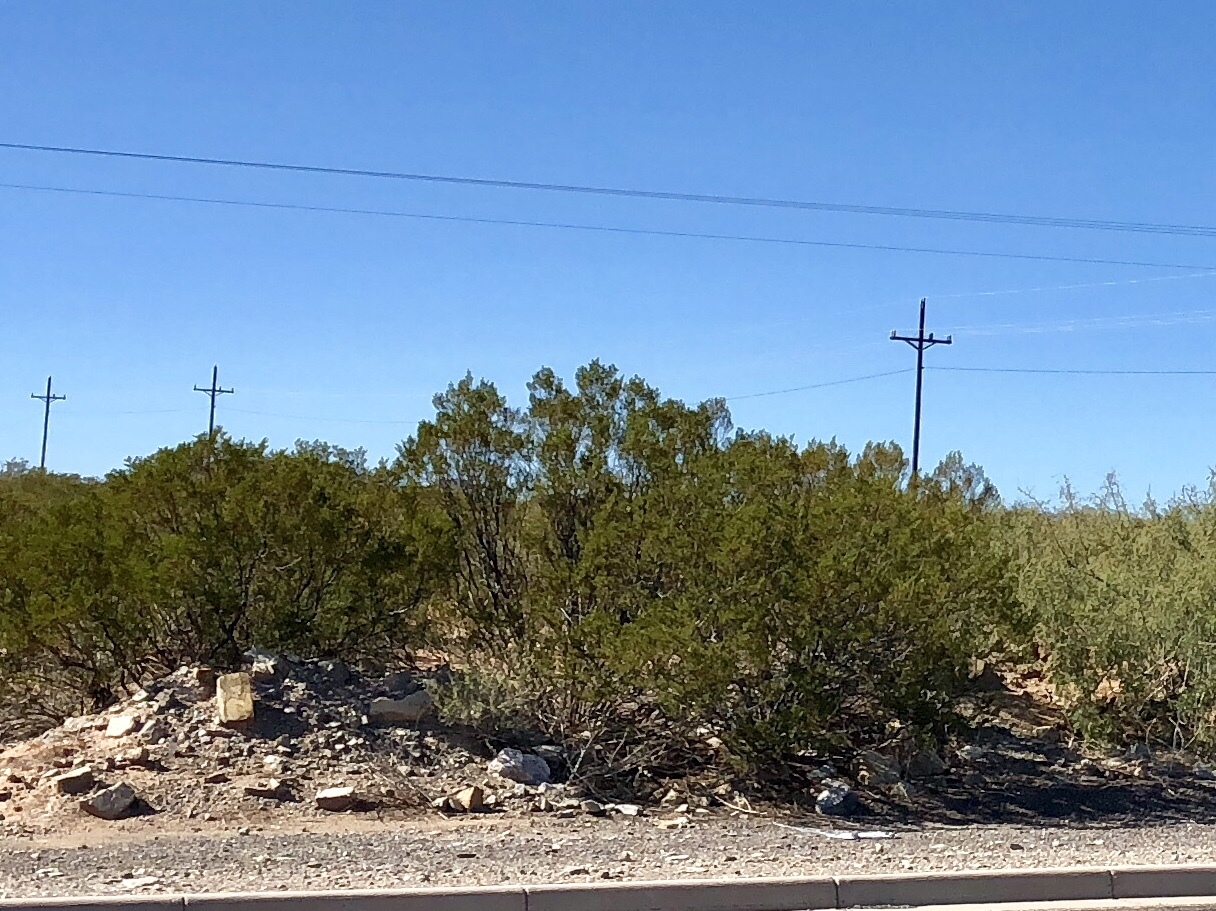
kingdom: Plantae
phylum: Tracheophyta
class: Magnoliopsida
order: Zygophyllales
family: Zygophyllaceae
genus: Larrea
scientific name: Larrea tridentata
